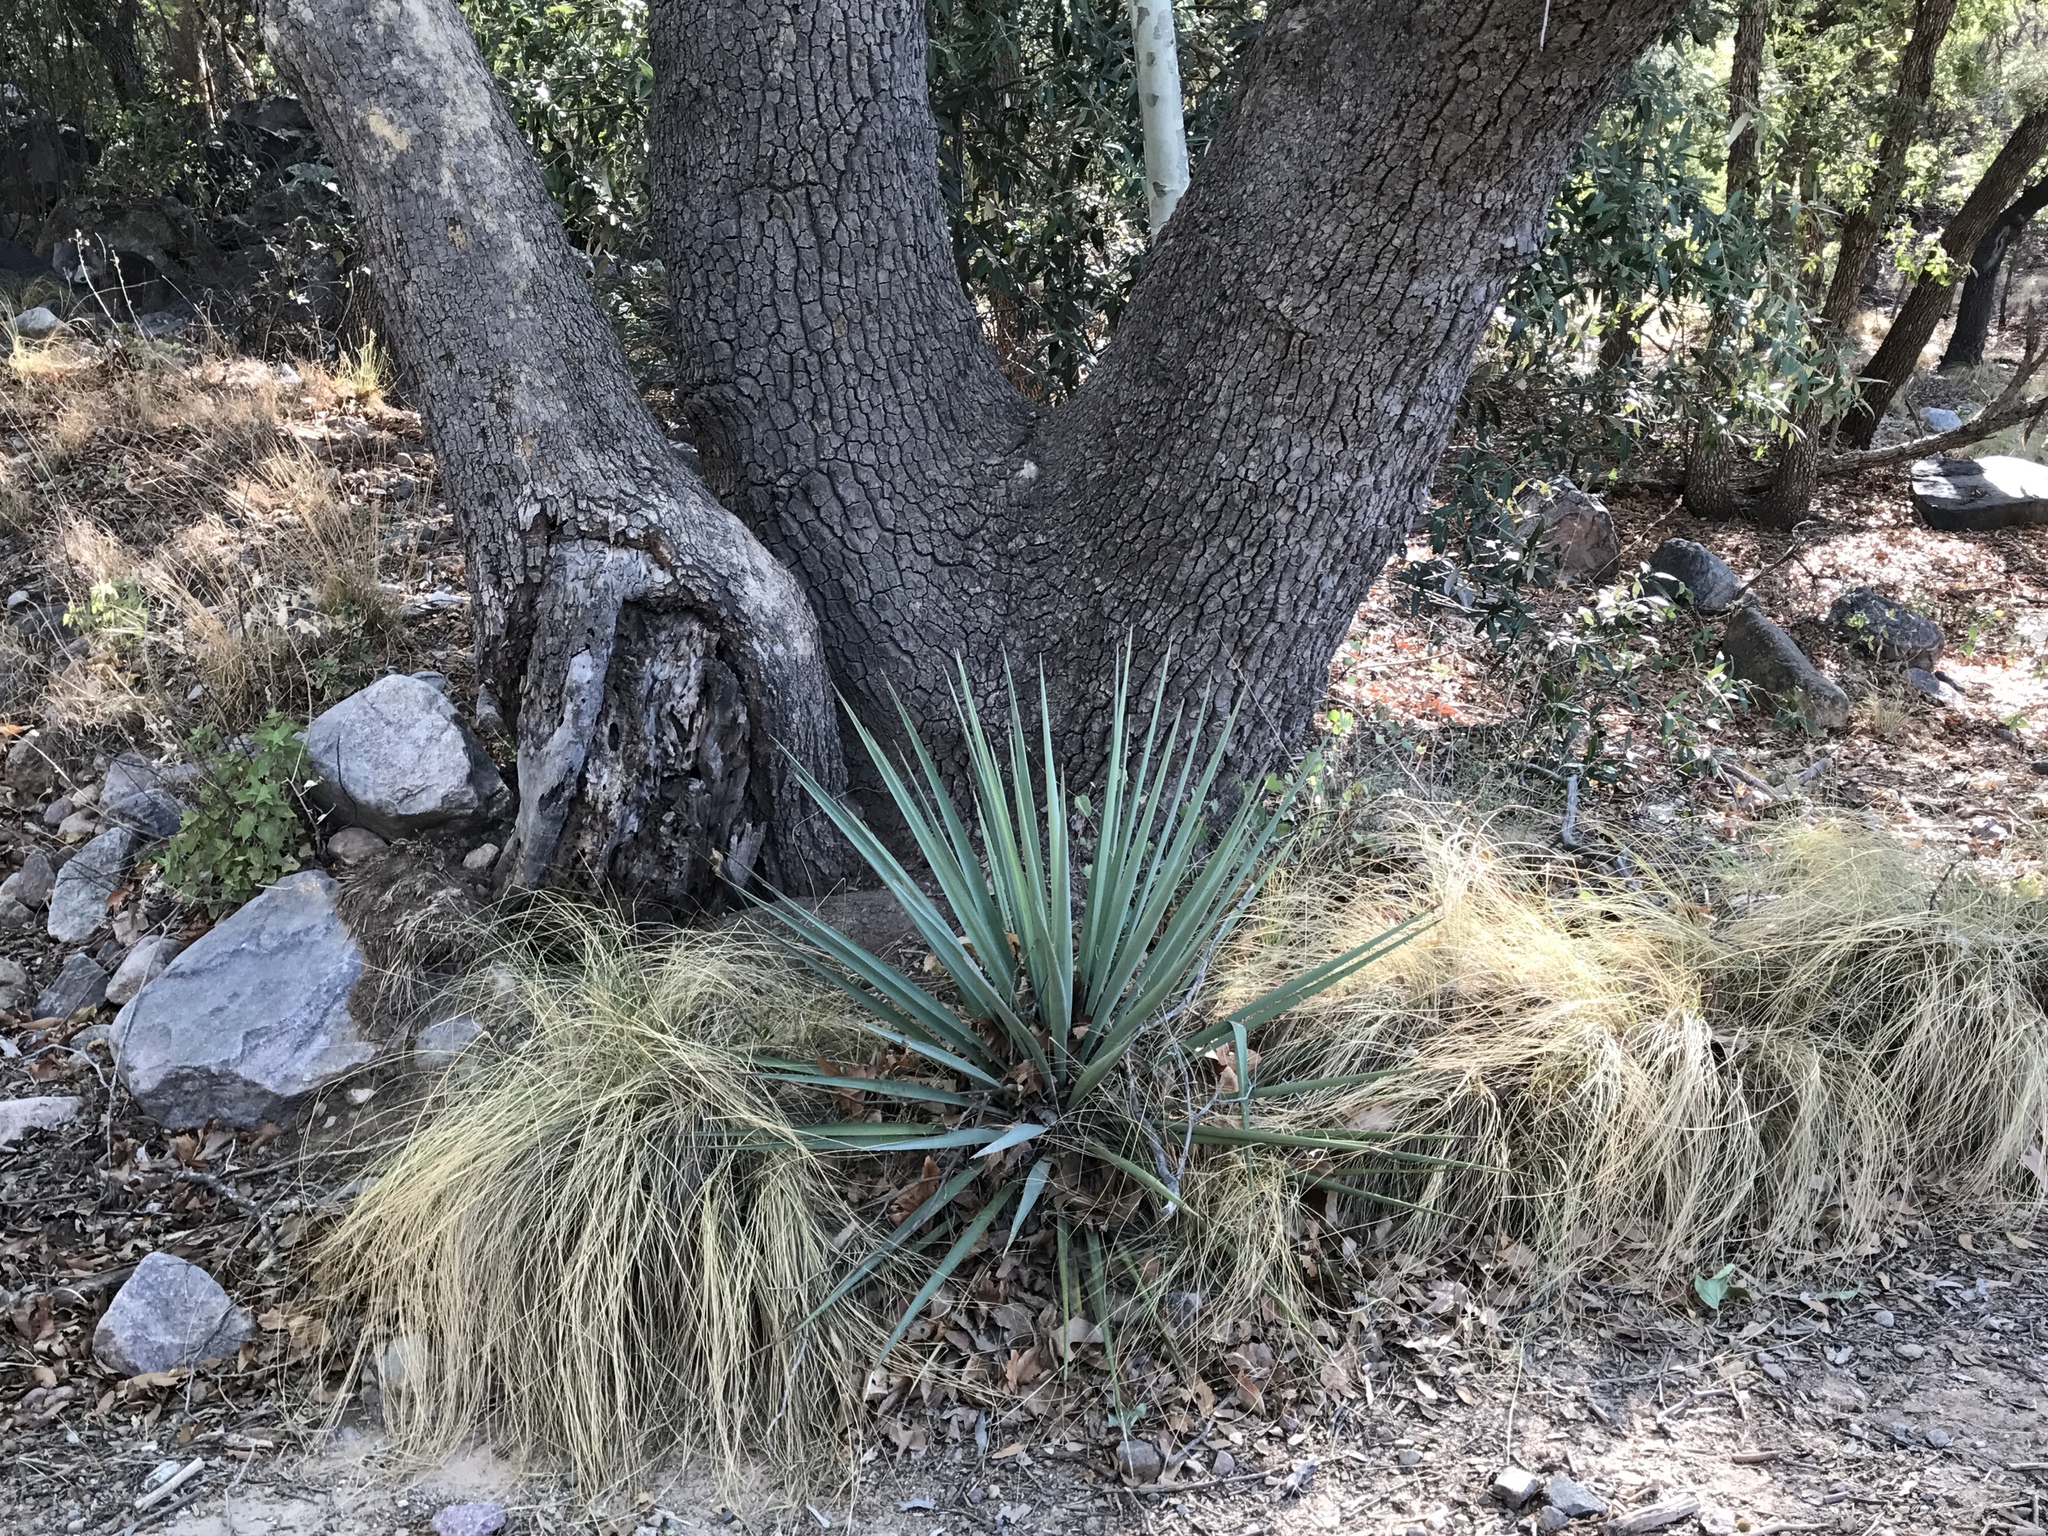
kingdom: Plantae
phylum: Tracheophyta
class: Liliopsida
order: Asparagales
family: Asparagaceae
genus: Yucca
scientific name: Yucca madrensis
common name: Hoary yucca
